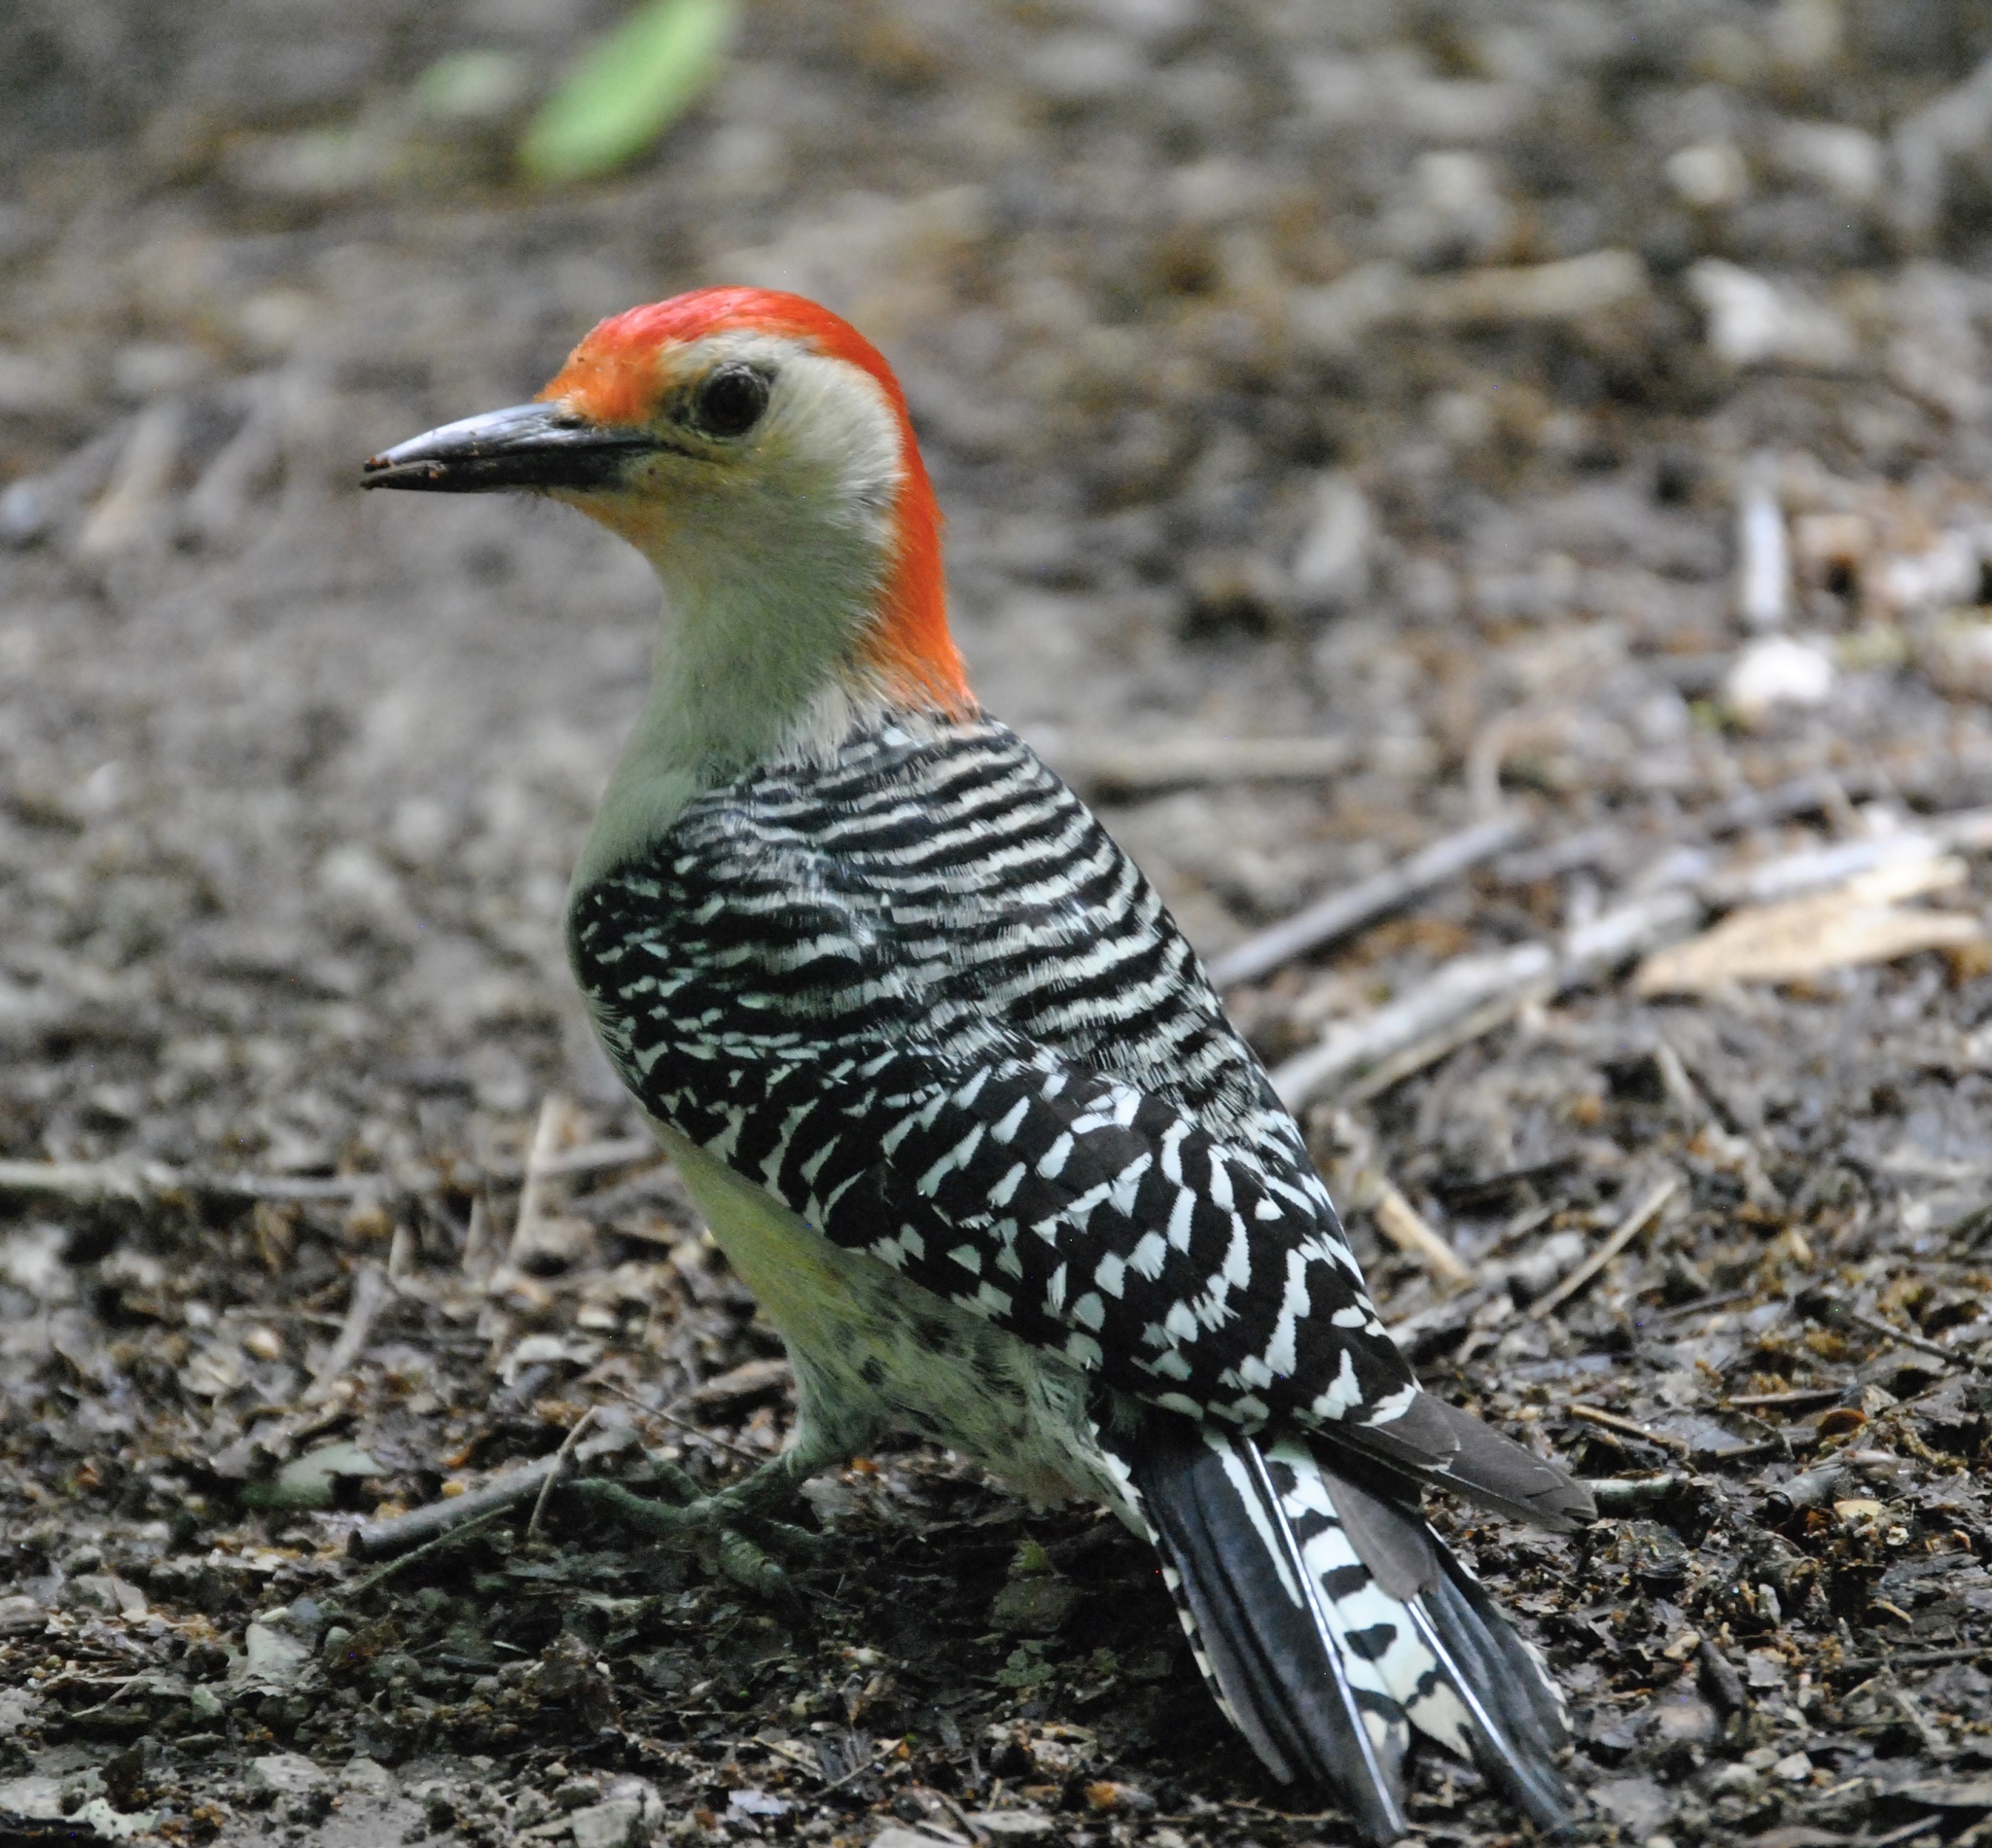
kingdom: Animalia
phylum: Chordata
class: Aves
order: Piciformes
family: Picidae
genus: Melanerpes
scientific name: Melanerpes carolinus
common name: Red-bellied woodpecker
